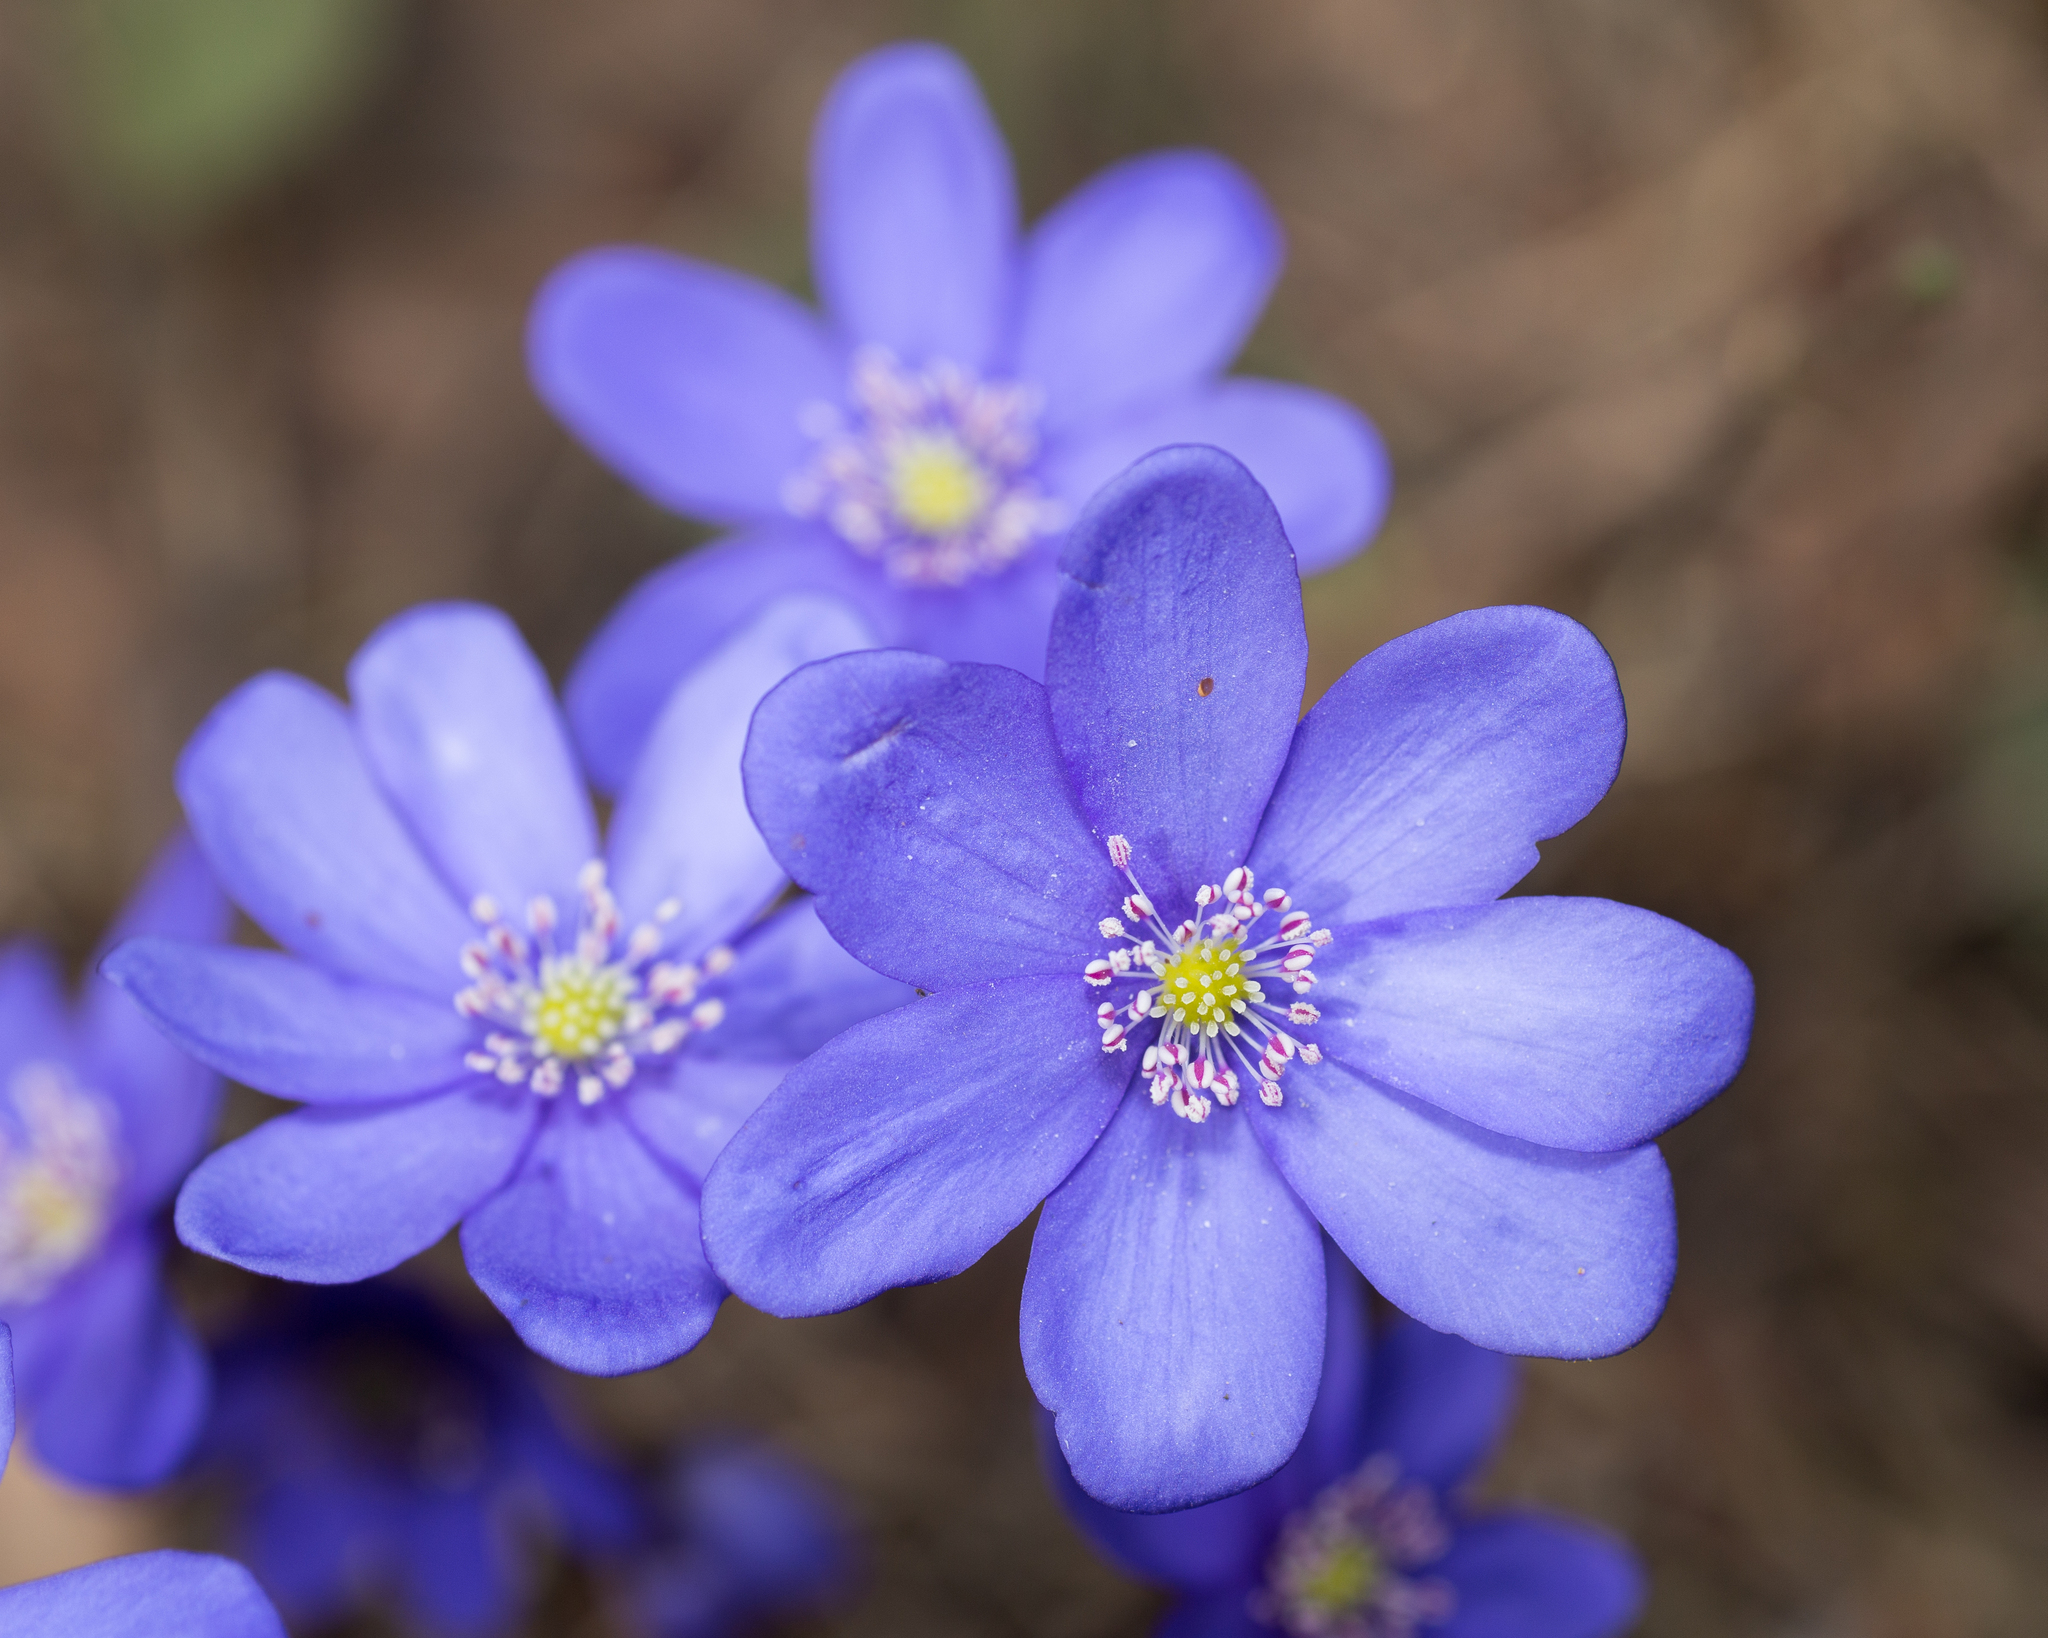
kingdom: Plantae
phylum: Tracheophyta
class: Magnoliopsida
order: Ranunculales
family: Ranunculaceae
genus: Hepatica
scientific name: Hepatica nobilis
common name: Liverleaf
